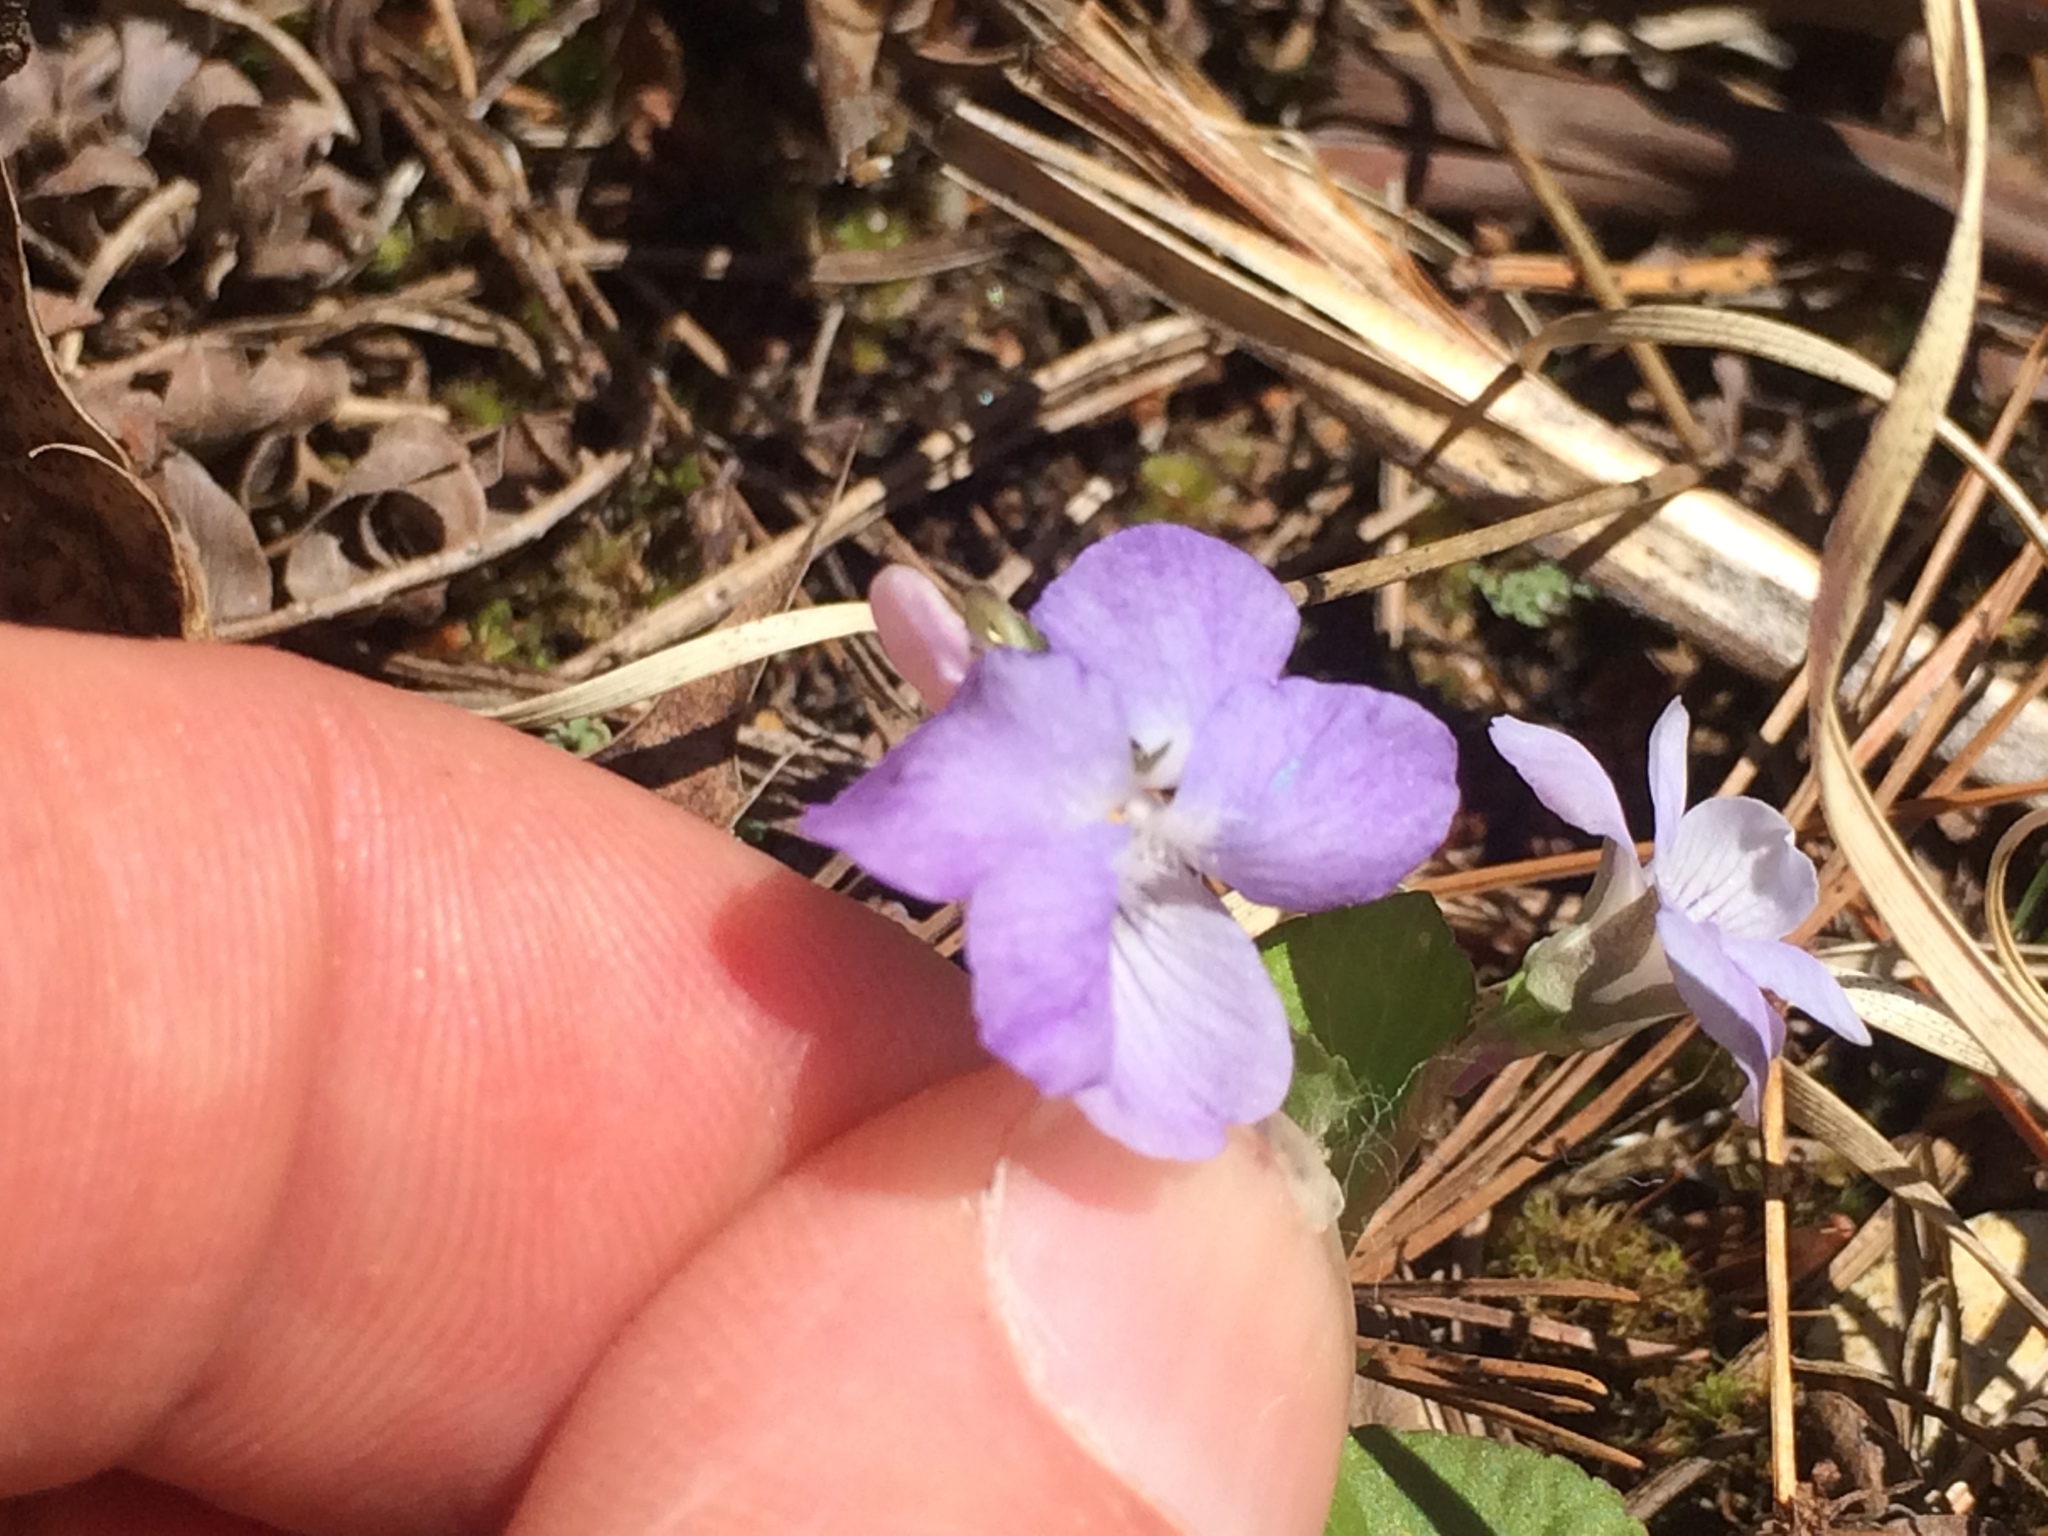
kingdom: Plantae
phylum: Tracheophyta
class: Magnoliopsida
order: Malpighiales
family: Violaceae
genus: Viola
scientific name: Viola labradorica
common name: Labrador violet
